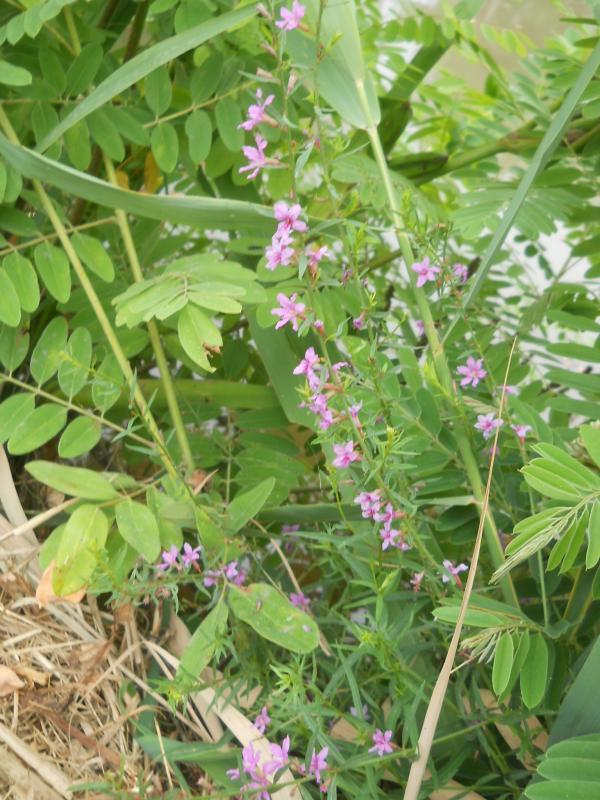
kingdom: Plantae
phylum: Tracheophyta
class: Magnoliopsida
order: Myrtales
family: Lythraceae
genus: Lythrum
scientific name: Lythrum hyssopifolia
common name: Grass-poly
